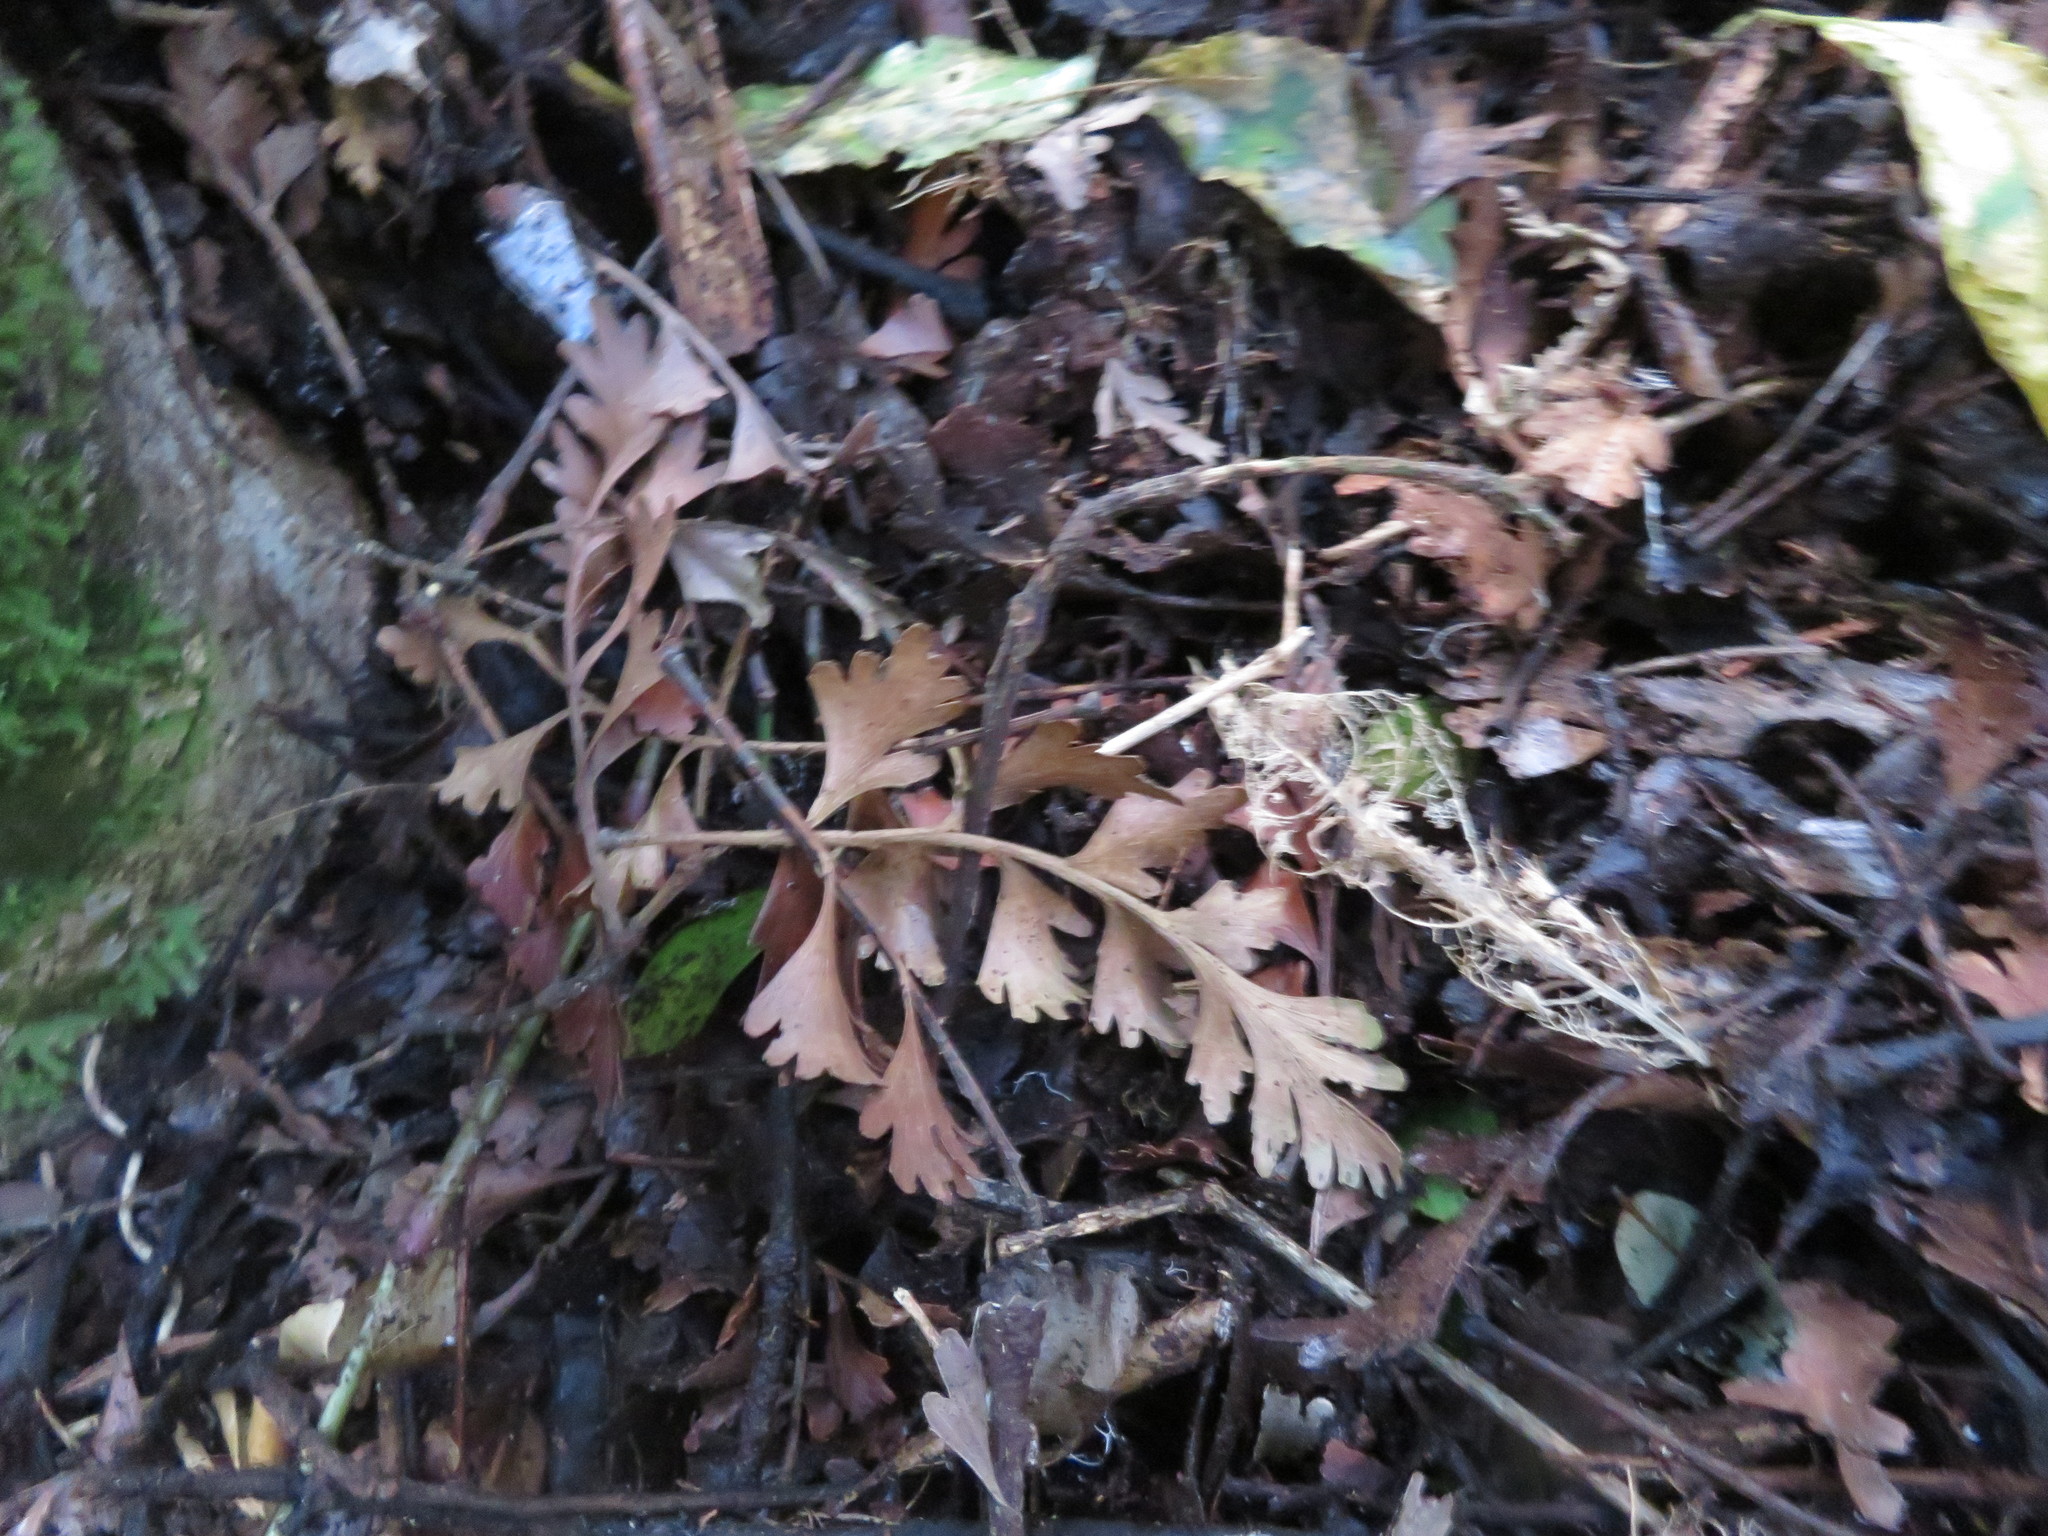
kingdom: Plantae
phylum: Tracheophyta
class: Pinopsida
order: Pinales
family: Phyllocladaceae
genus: Phyllocladus
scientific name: Phyllocladus trichomanoides
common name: Celery pine
